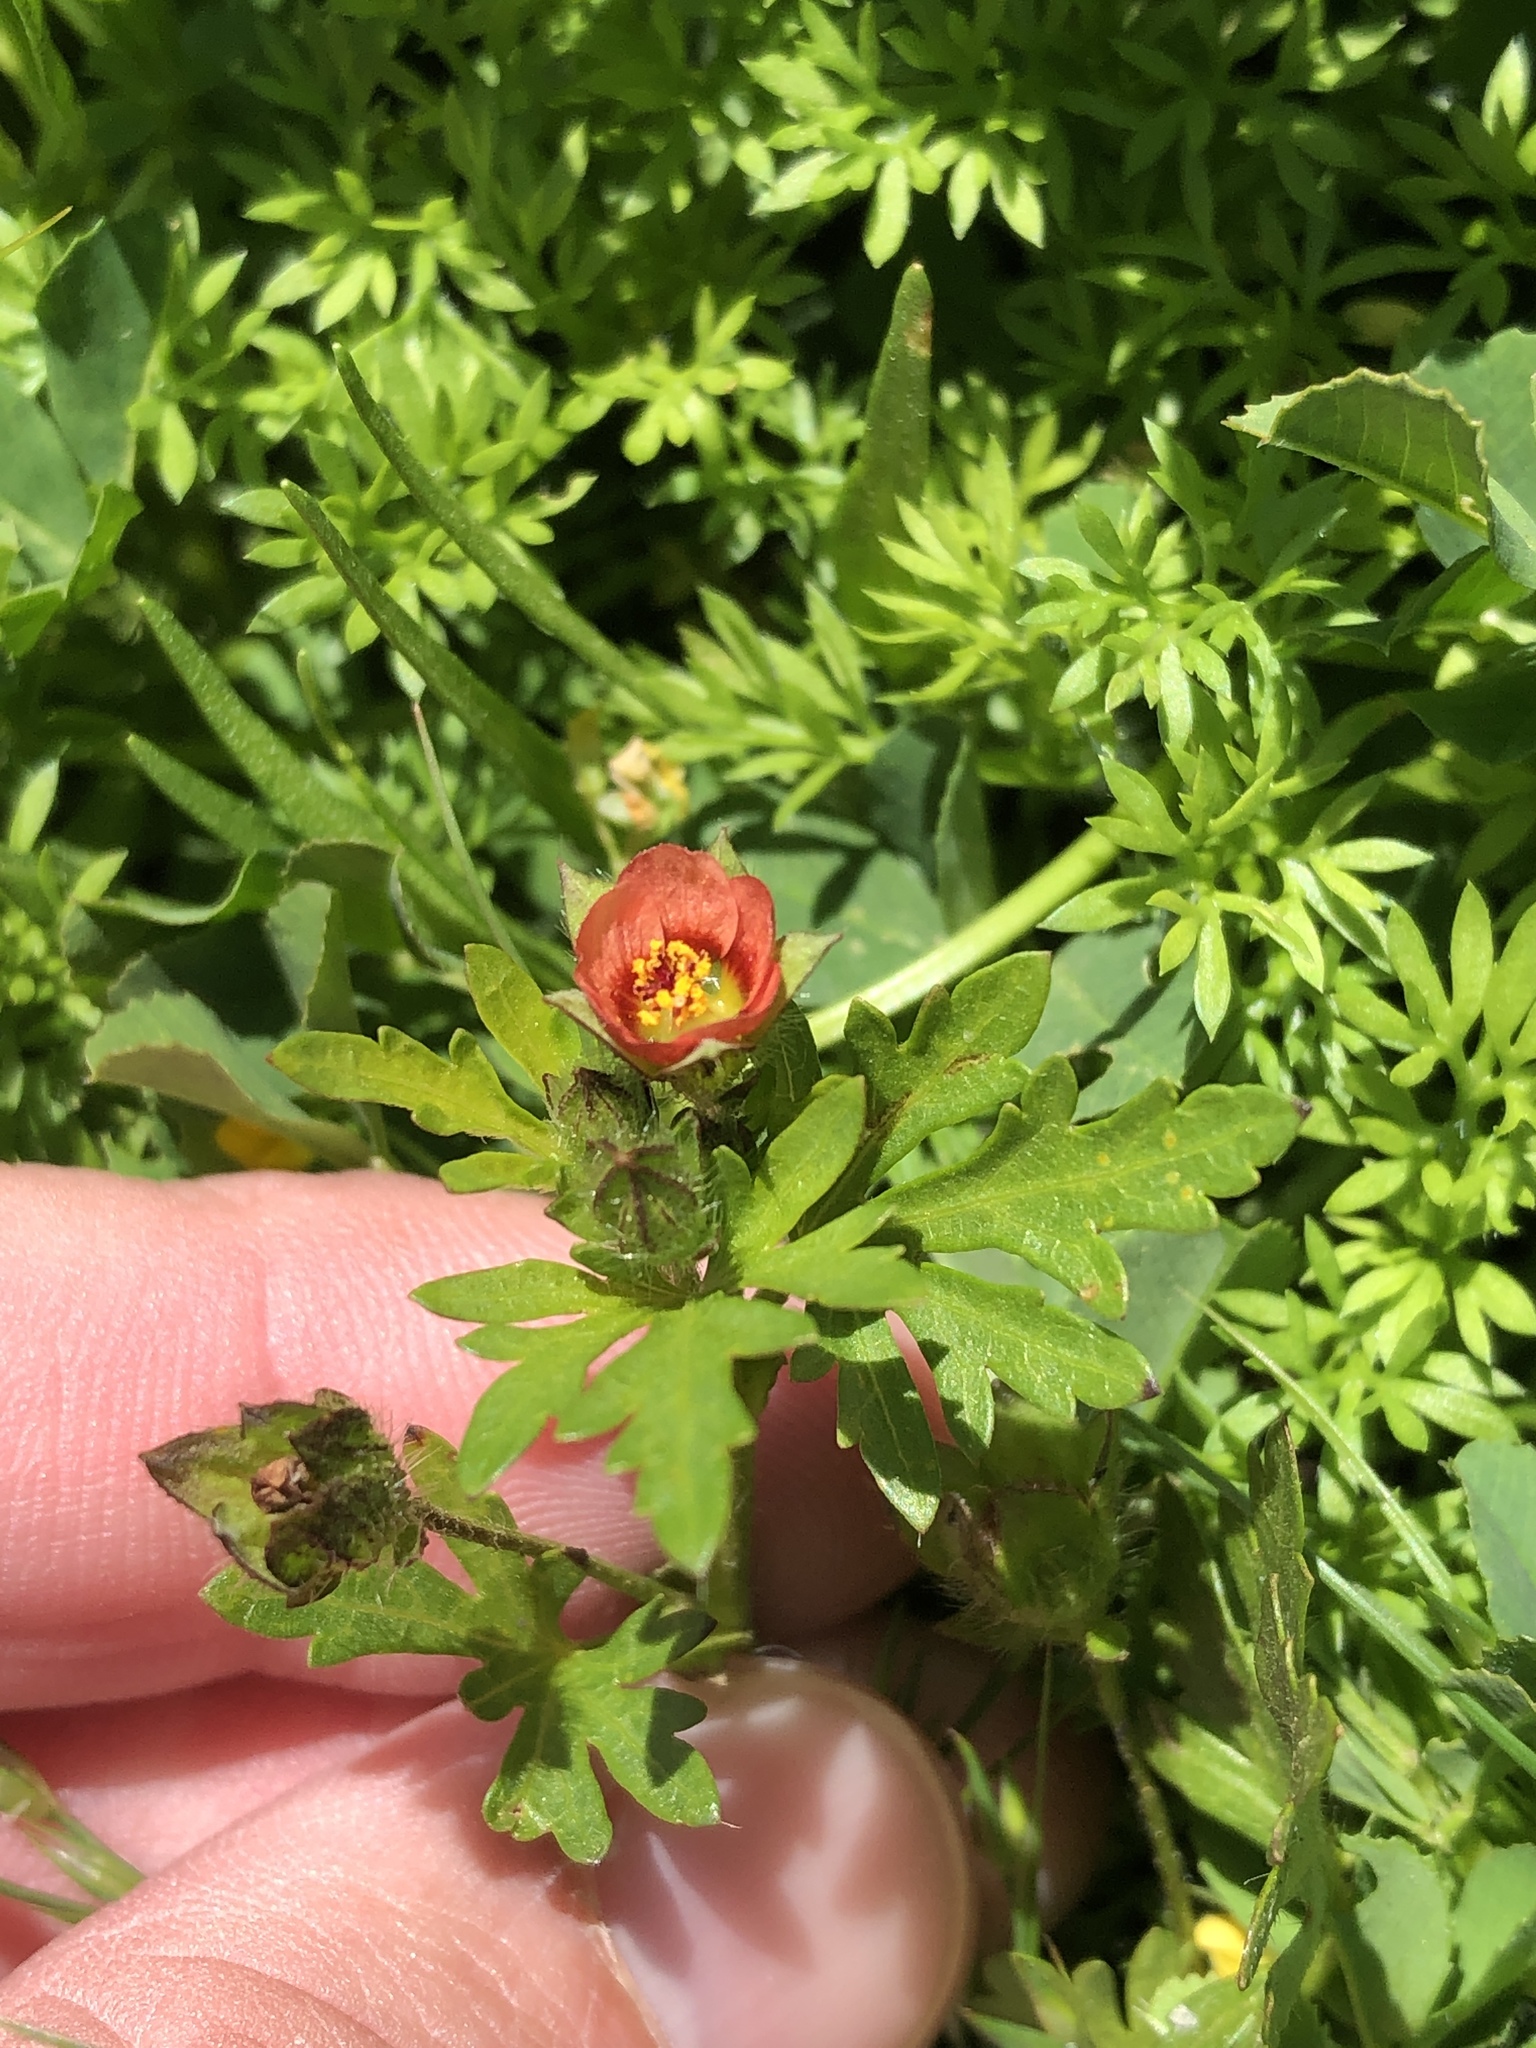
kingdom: Plantae
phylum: Tracheophyta
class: Magnoliopsida
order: Malvales
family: Malvaceae
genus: Modiola
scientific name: Modiola caroliniana
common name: Carolina bristlemallow
